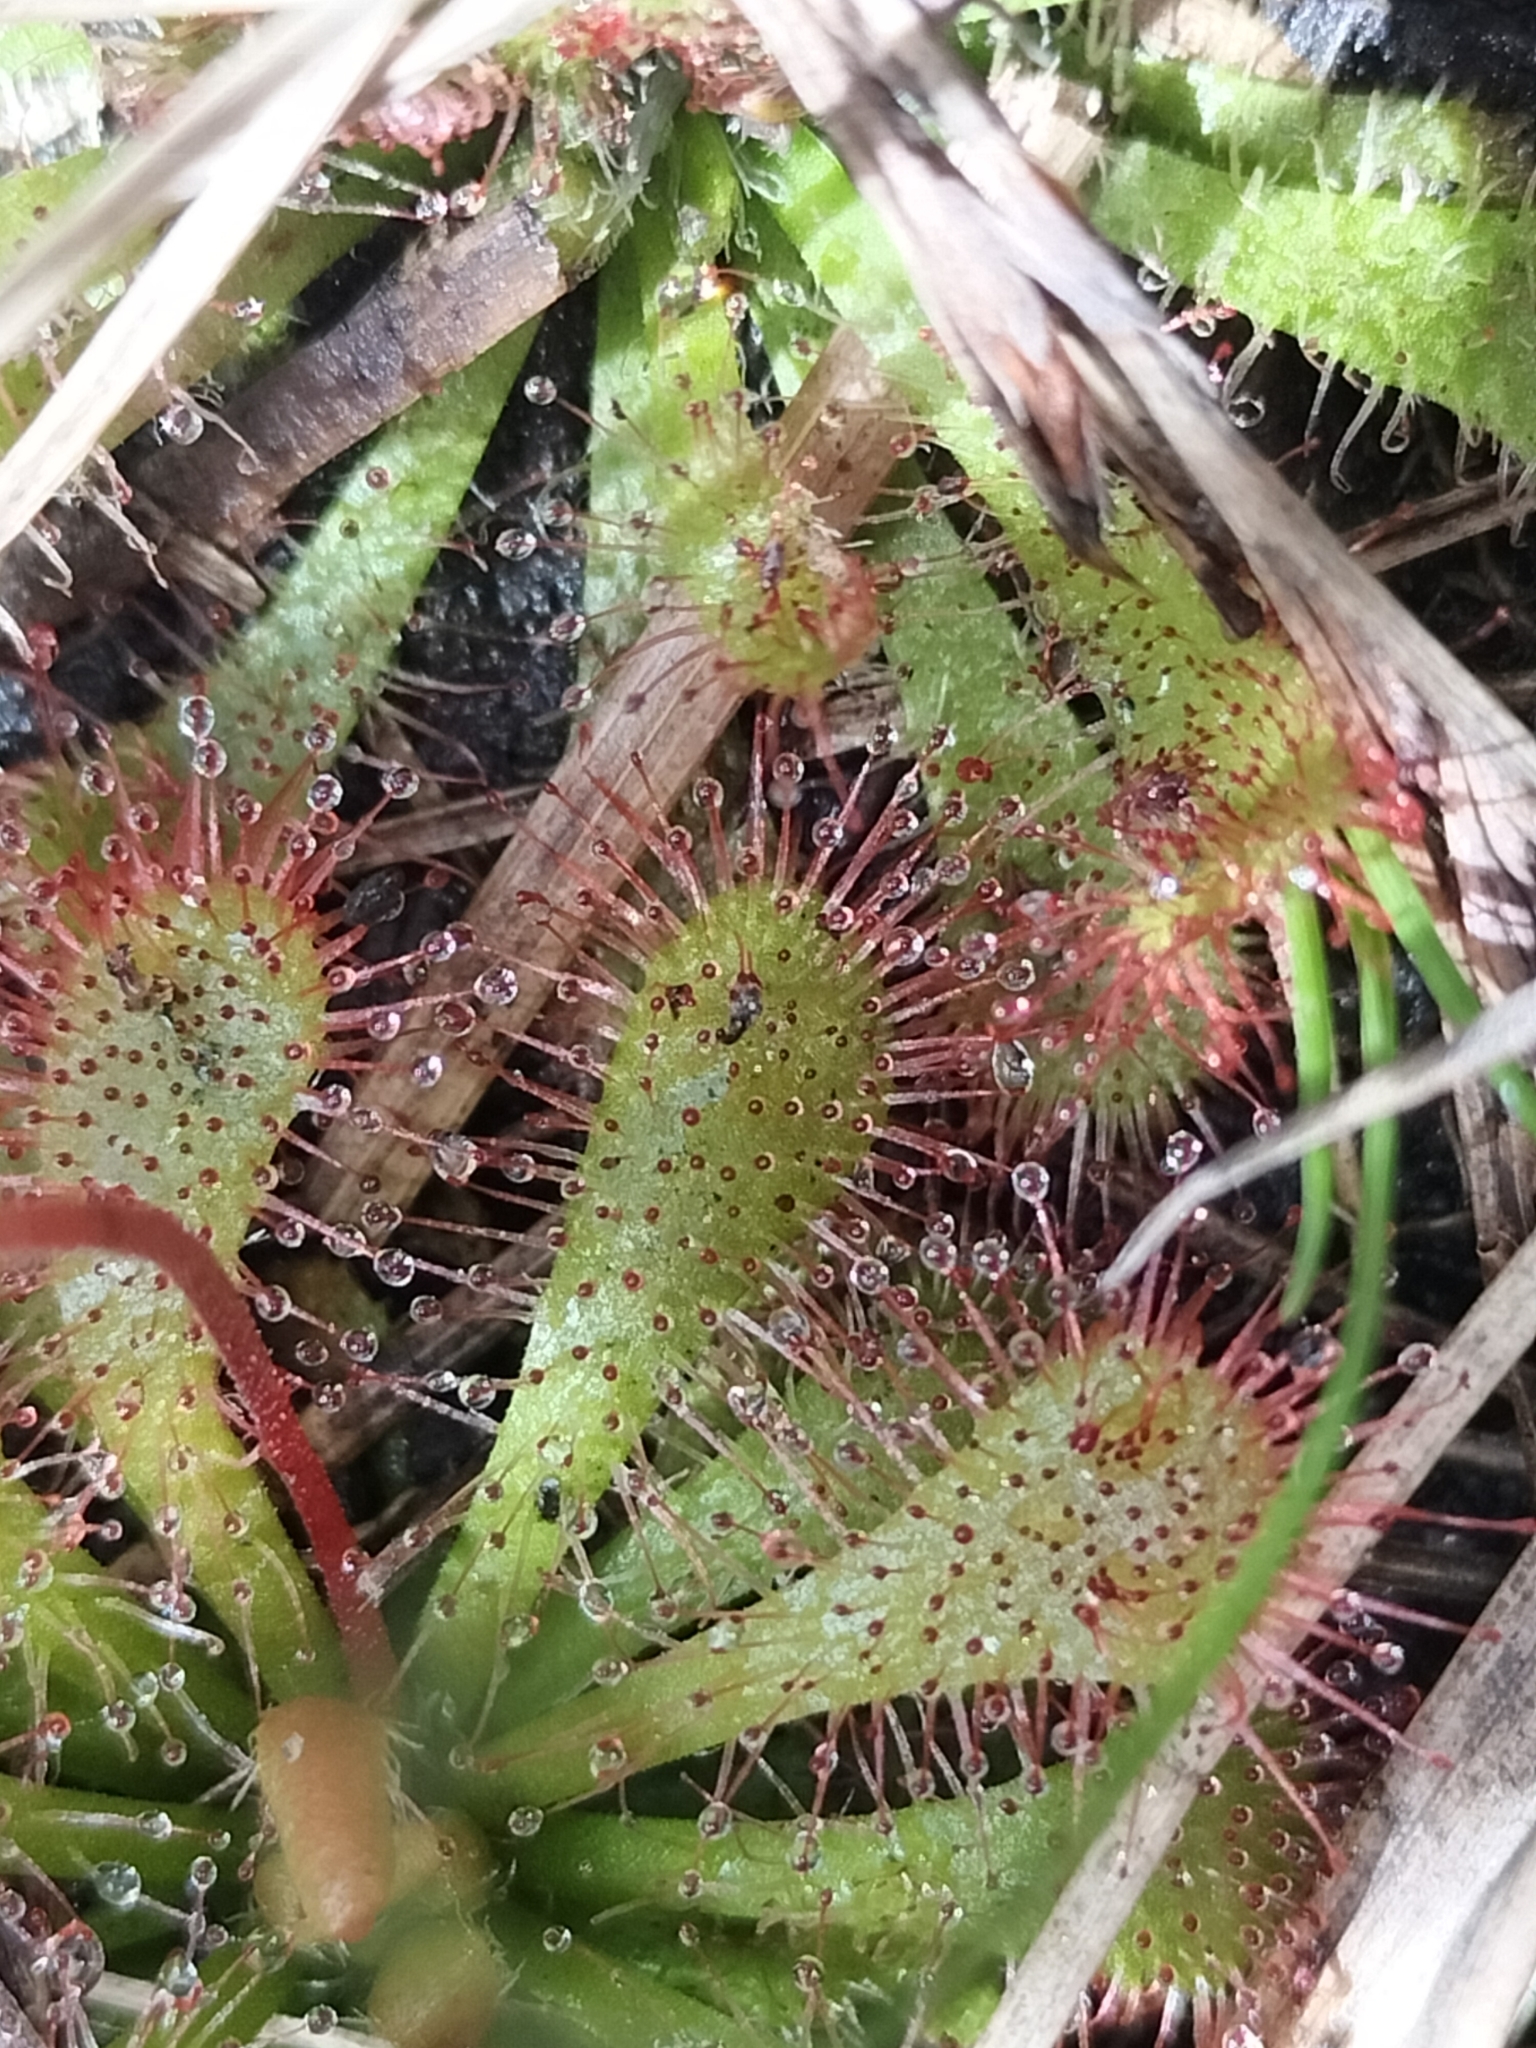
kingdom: Plantae
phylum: Tracheophyta
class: Magnoliopsida
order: Caryophyllales
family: Droseraceae
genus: Drosera
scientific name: Drosera spatulata
